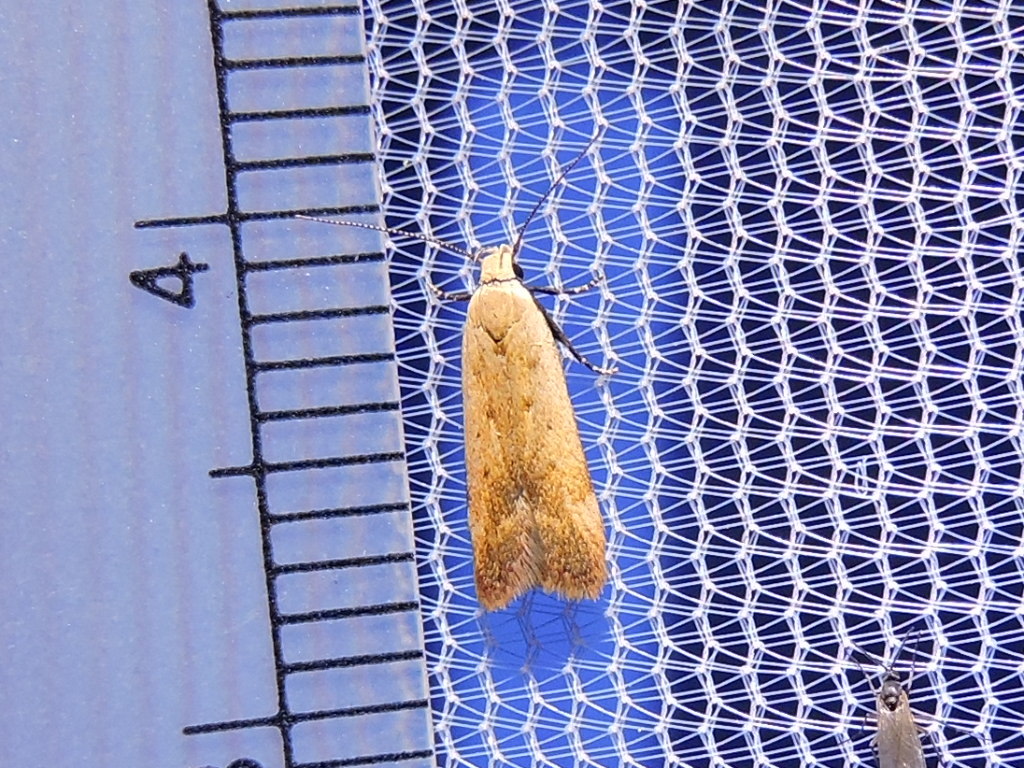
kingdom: Animalia
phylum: Arthropoda
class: Insecta
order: Lepidoptera
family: Gelechiidae
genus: Anacampsis
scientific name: Anacampsis fullonella
